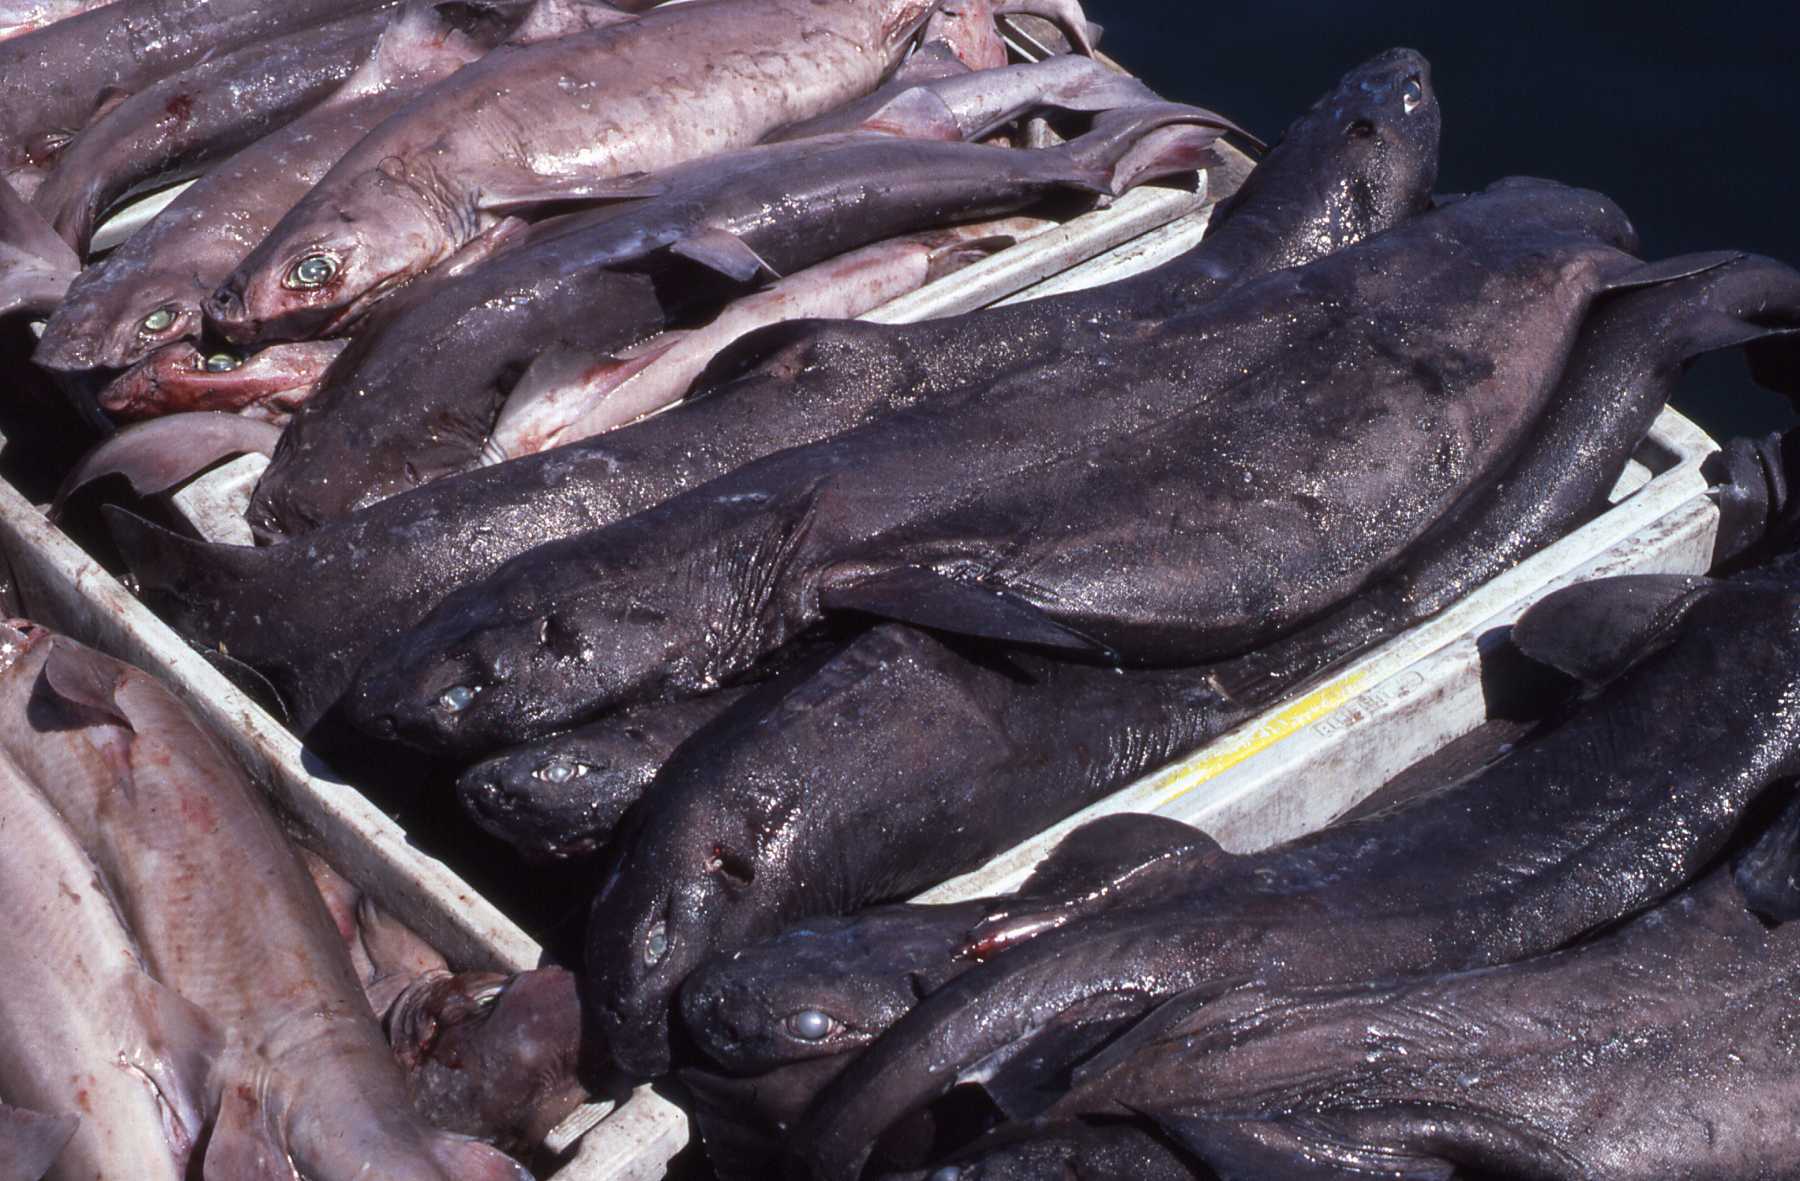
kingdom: Animalia
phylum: Chordata
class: Elasmobranchii
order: Squaliformes
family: Dalatiidae
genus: Dalatias
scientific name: Dalatias licha
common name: Kitefin shark
